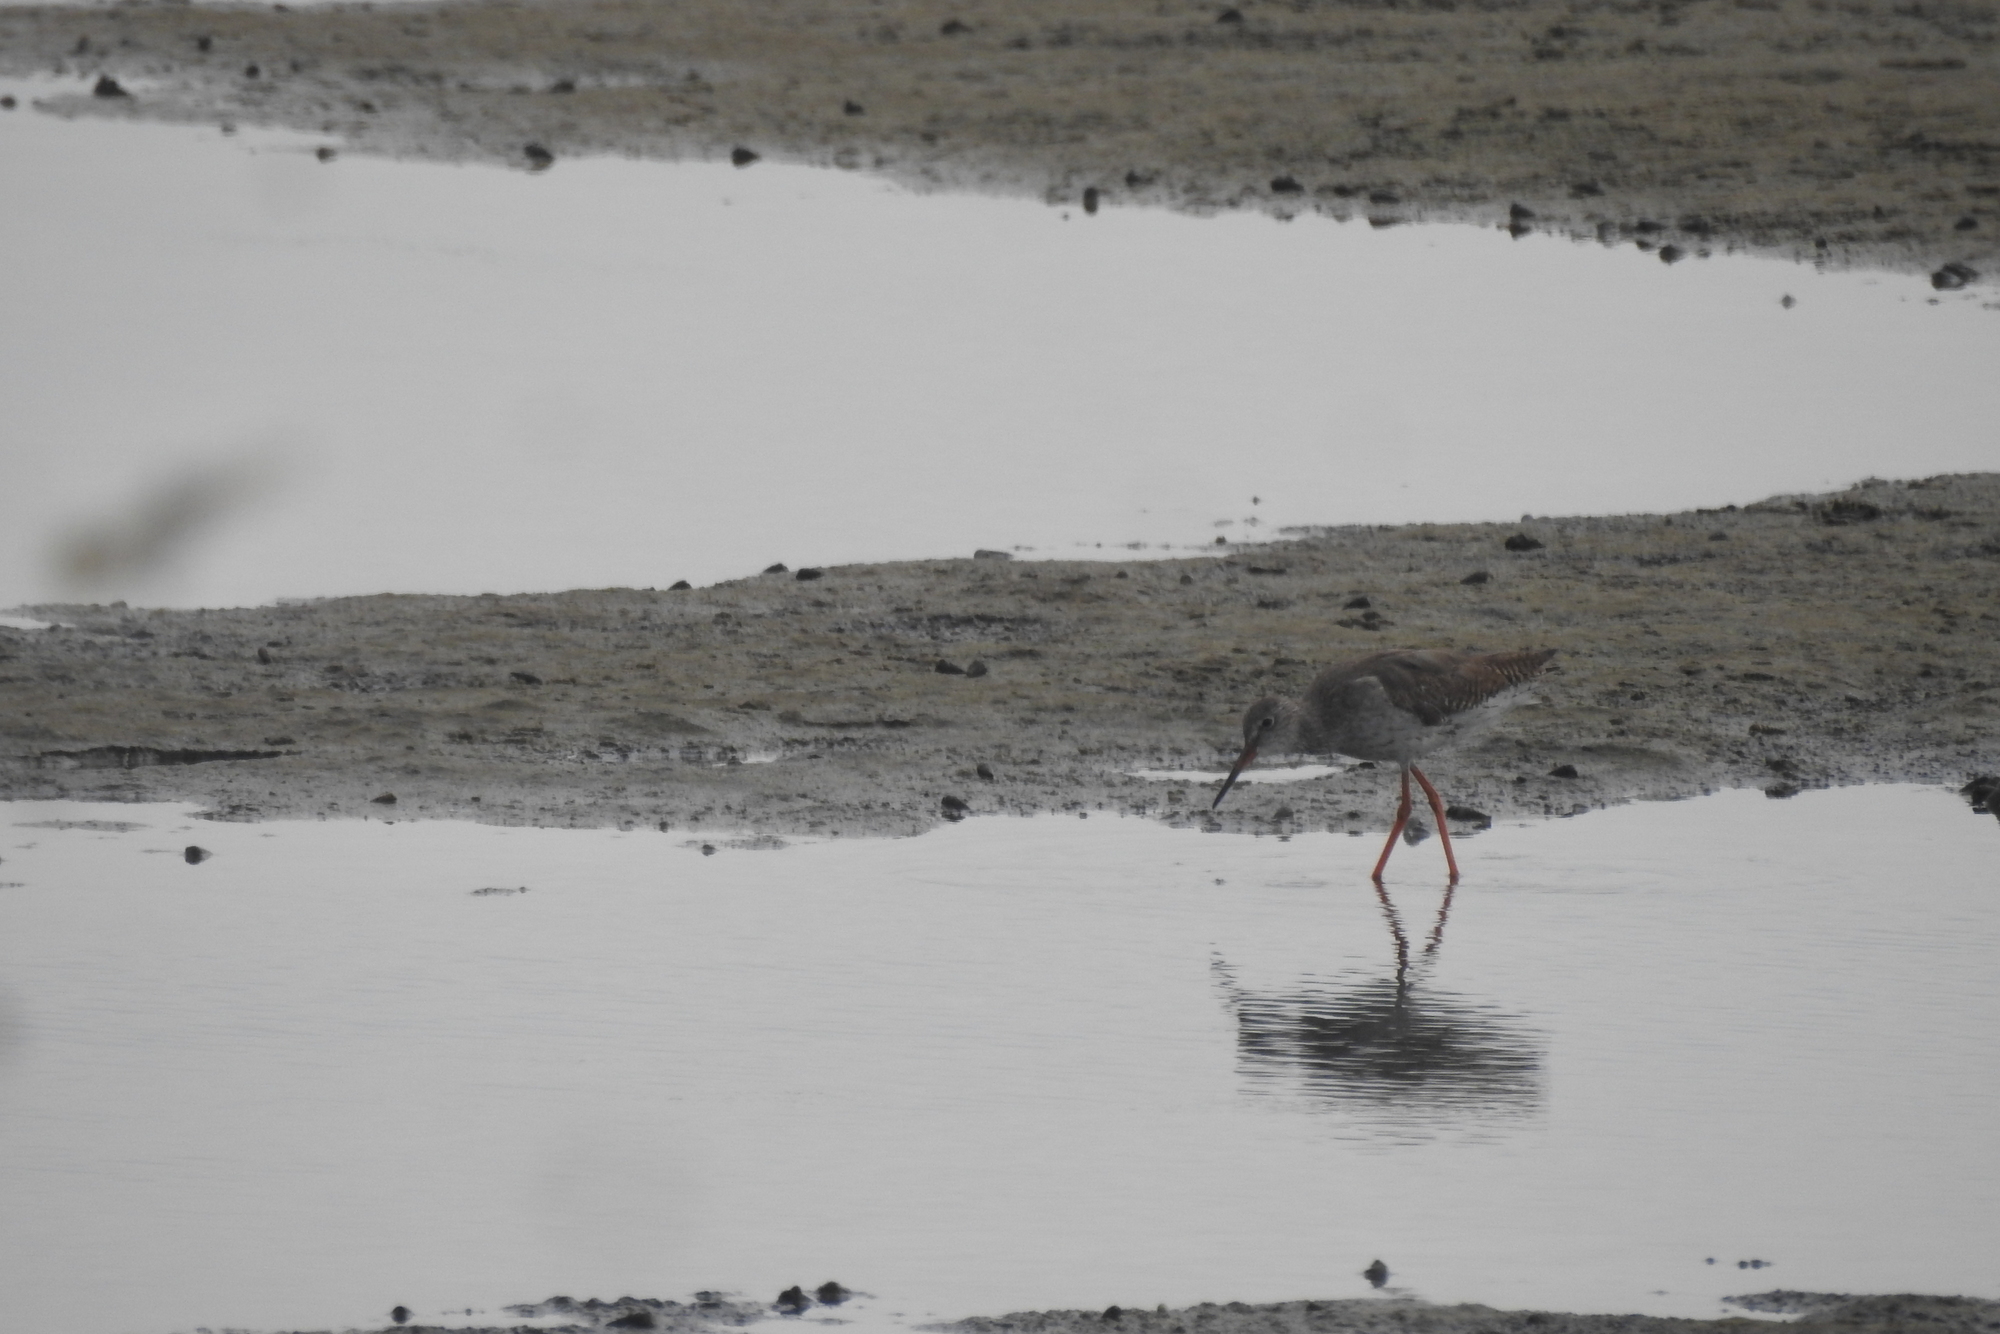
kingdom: Animalia
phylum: Chordata
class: Aves
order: Charadriiformes
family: Scolopacidae
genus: Tringa
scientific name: Tringa totanus
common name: Common redshank
